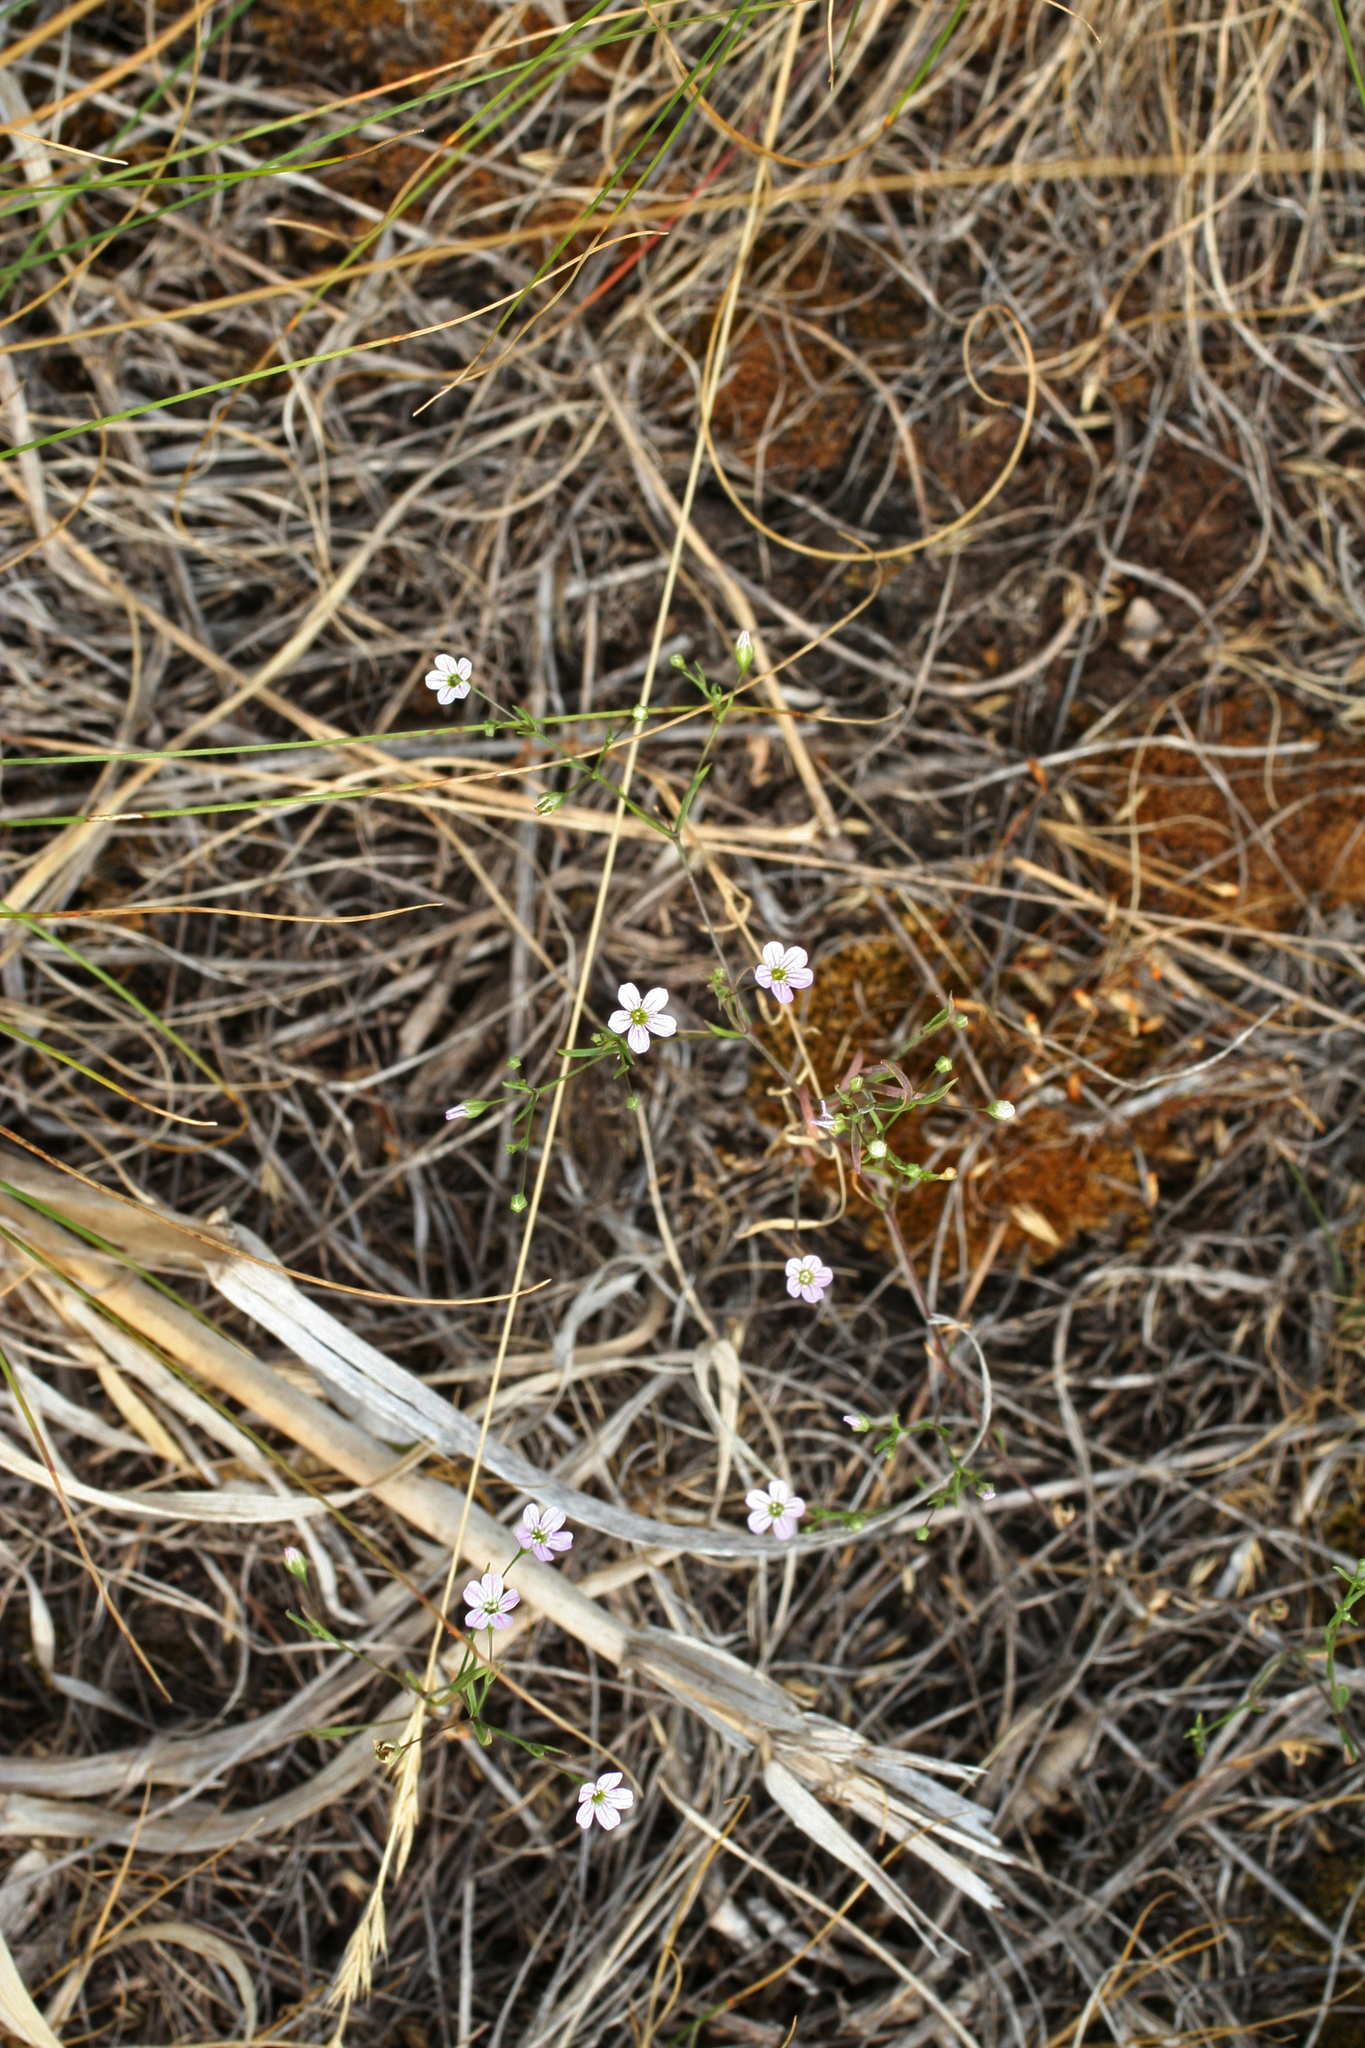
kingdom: Plantae
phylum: Tracheophyta
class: Magnoliopsida
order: Caryophyllales
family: Caryophyllaceae
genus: Psammophiliella
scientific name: Psammophiliella muralis
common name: Cushion baby's-breath
